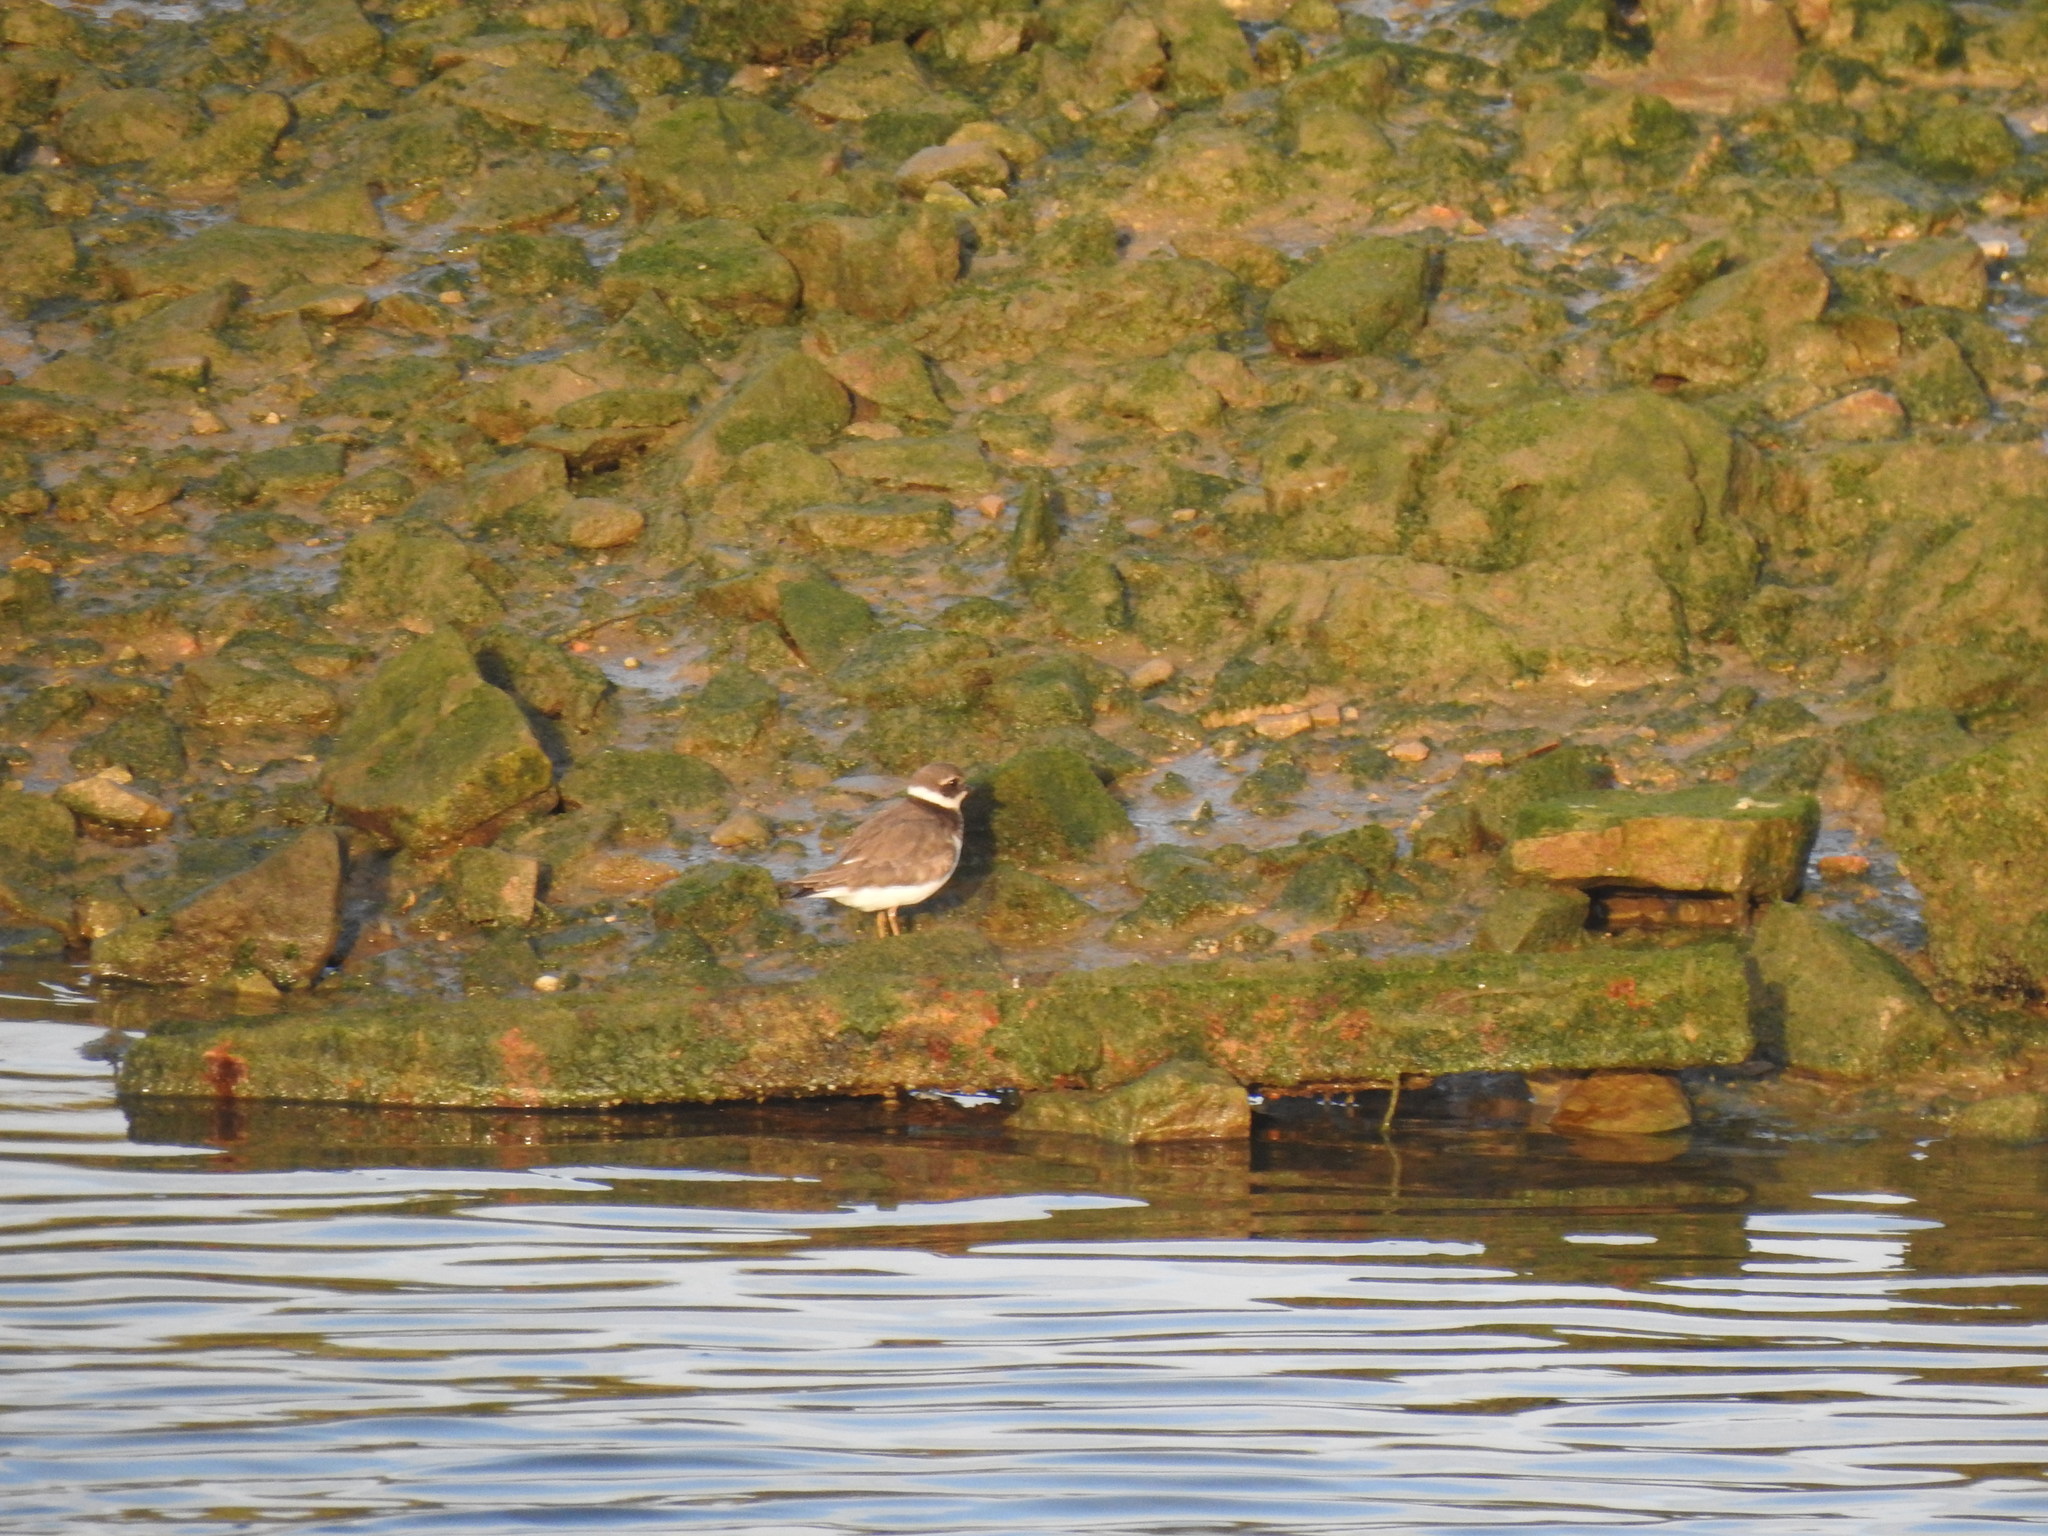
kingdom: Animalia
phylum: Chordata
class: Aves
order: Charadriiformes
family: Charadriidae
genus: Charadrius
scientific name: Charadrius hiaticula
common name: Common ringed plover
